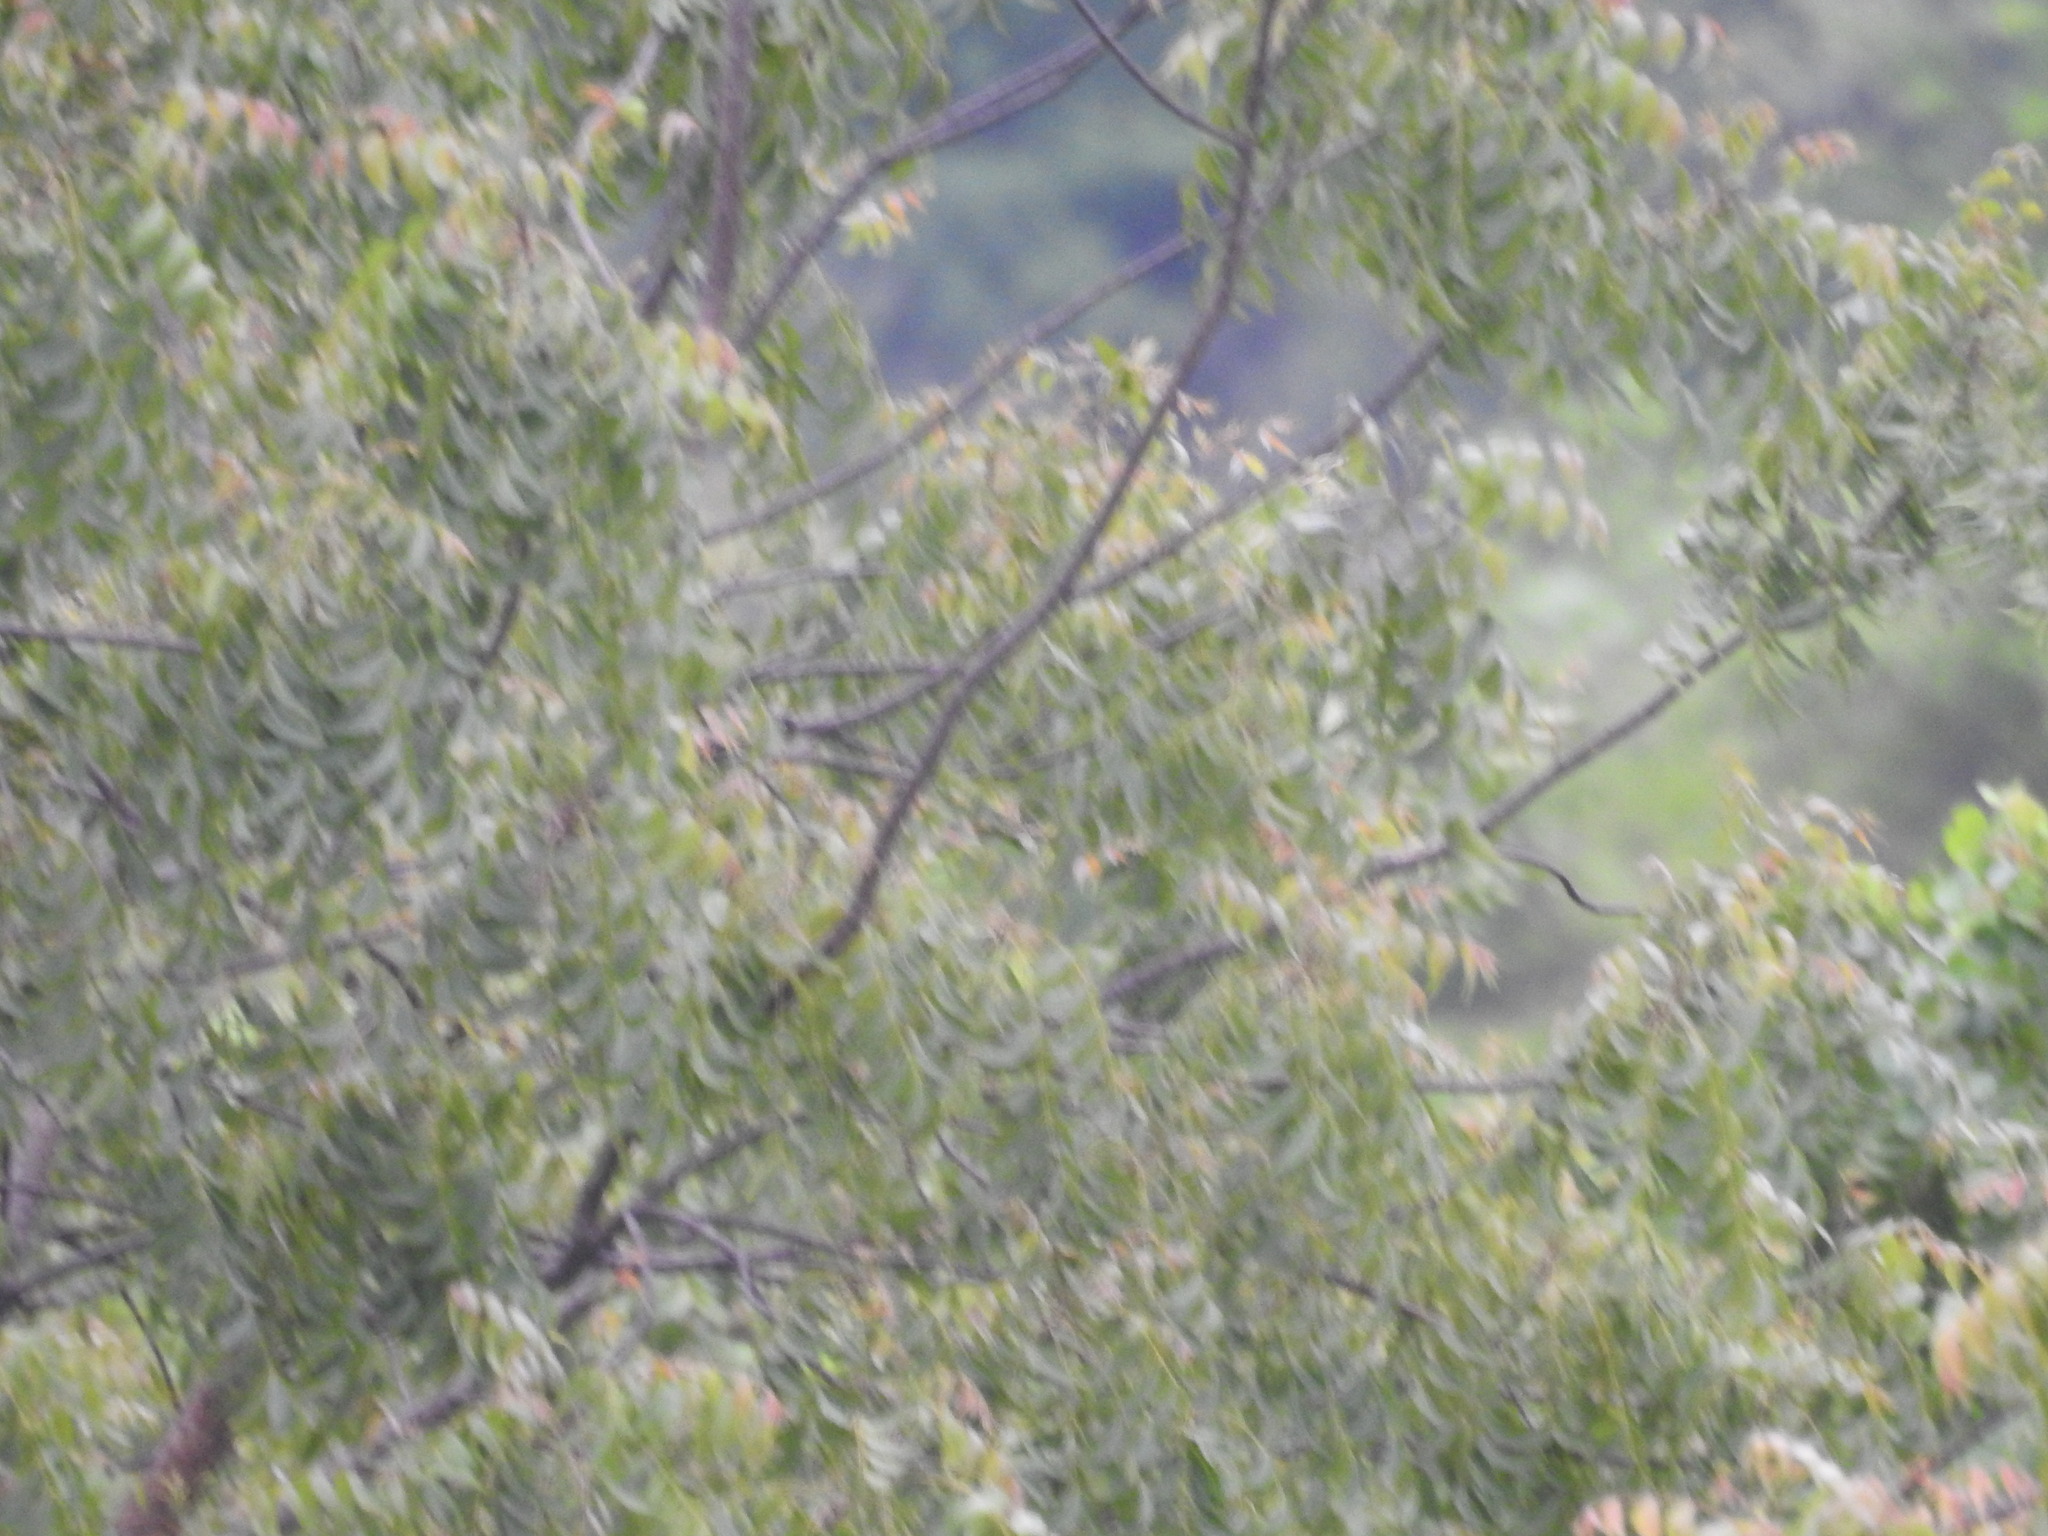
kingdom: Plantae
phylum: Tracheophyta
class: Magnoliopsida
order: Sapindales
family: Meliaceae
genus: Azadirachta
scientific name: Azadirachta indica
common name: Neem
